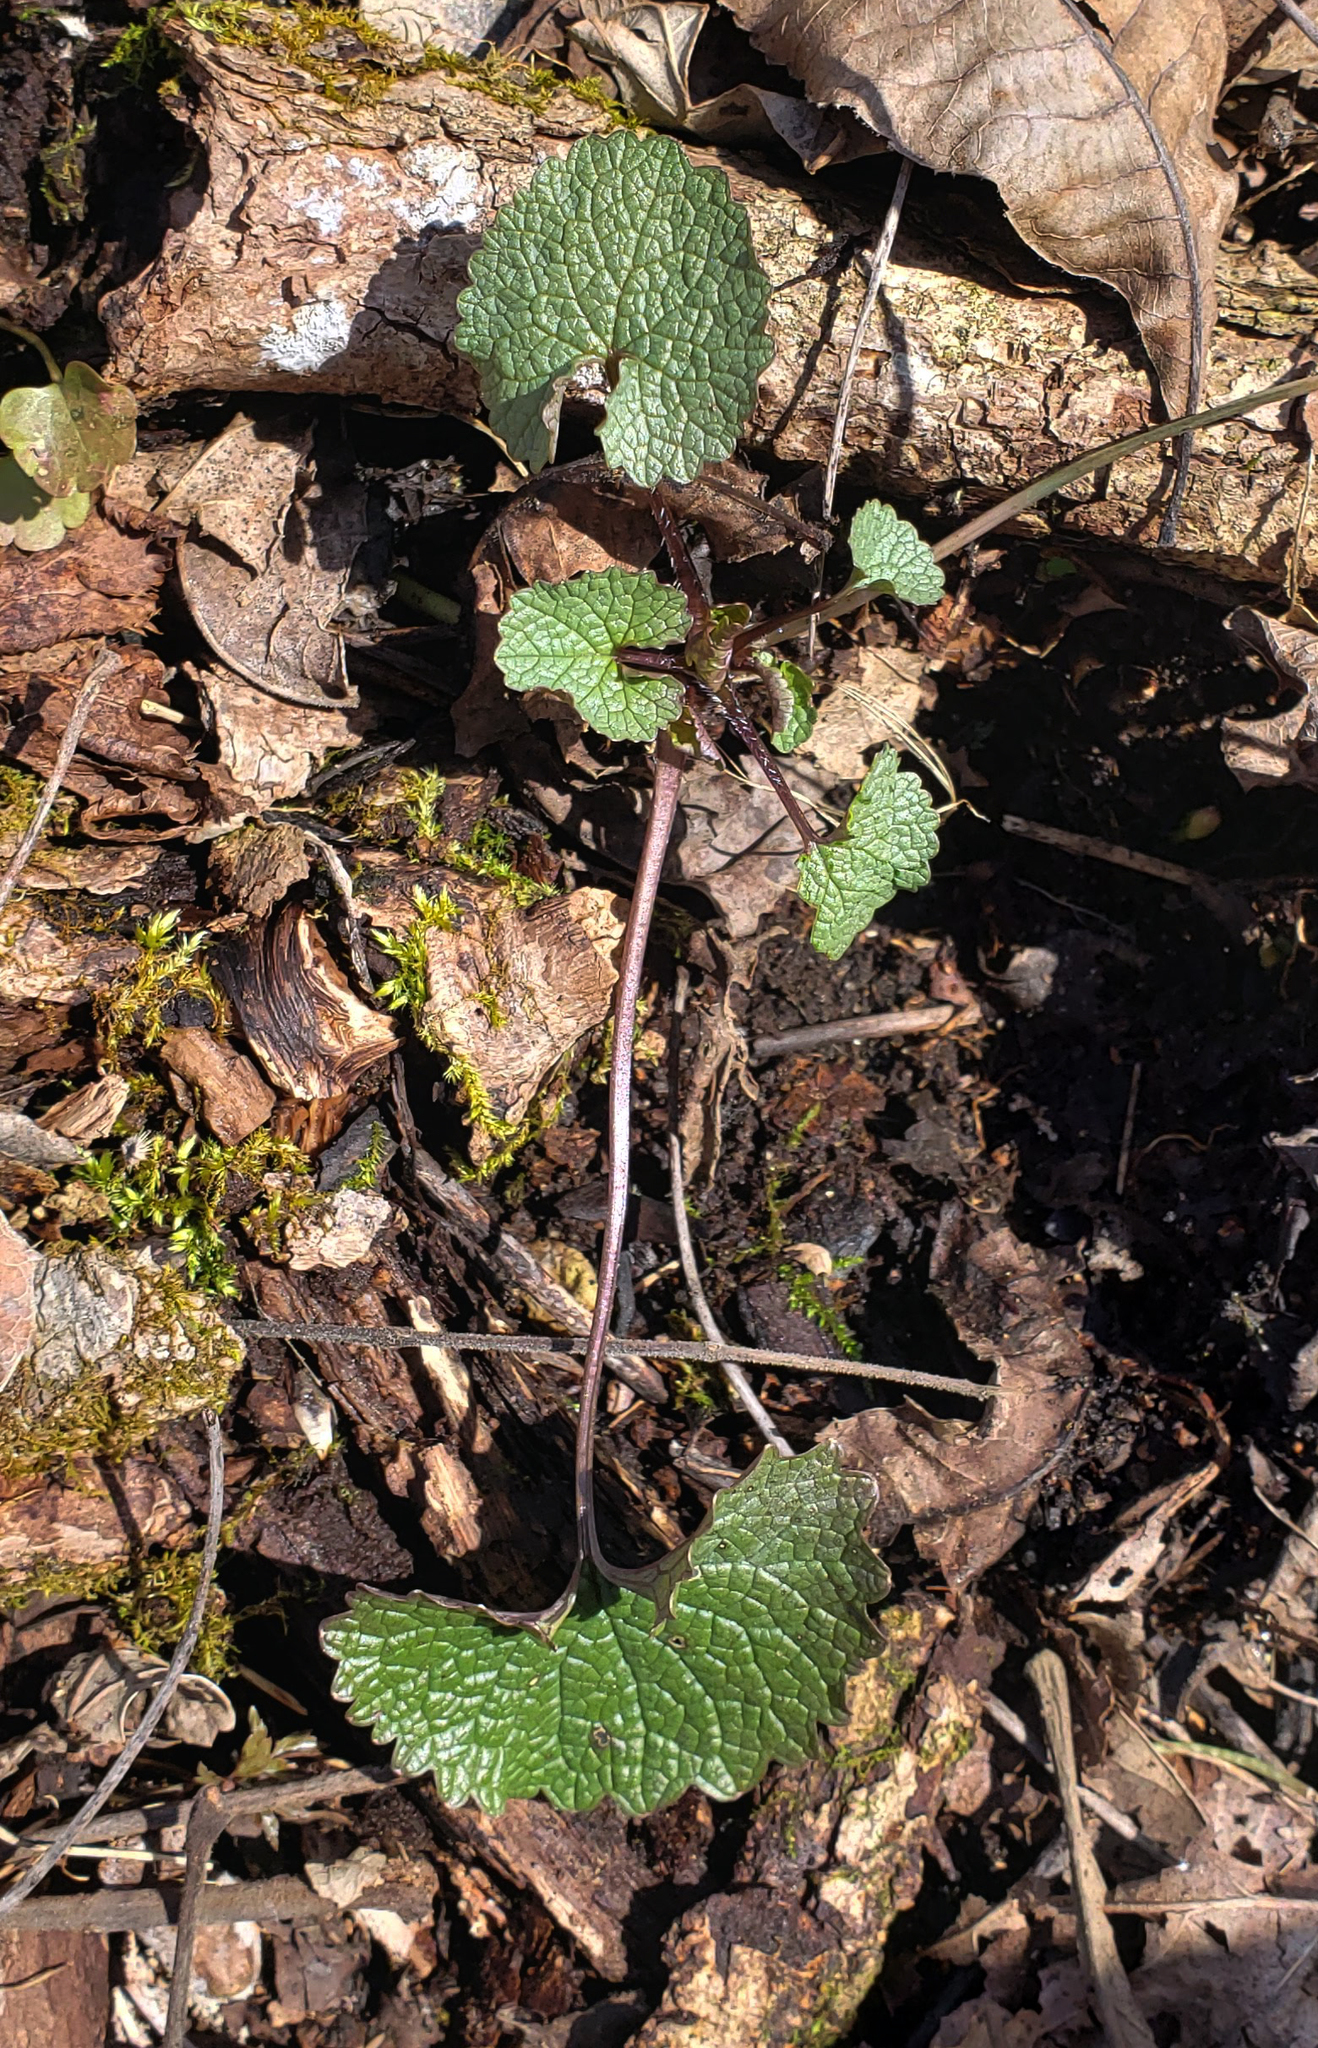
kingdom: Plantae
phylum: Tracheophyta
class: Magnoliopsida
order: Brassicales
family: Brassicaceae
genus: Alliaria
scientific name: Alliaria petiolata
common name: Garlic mustard
